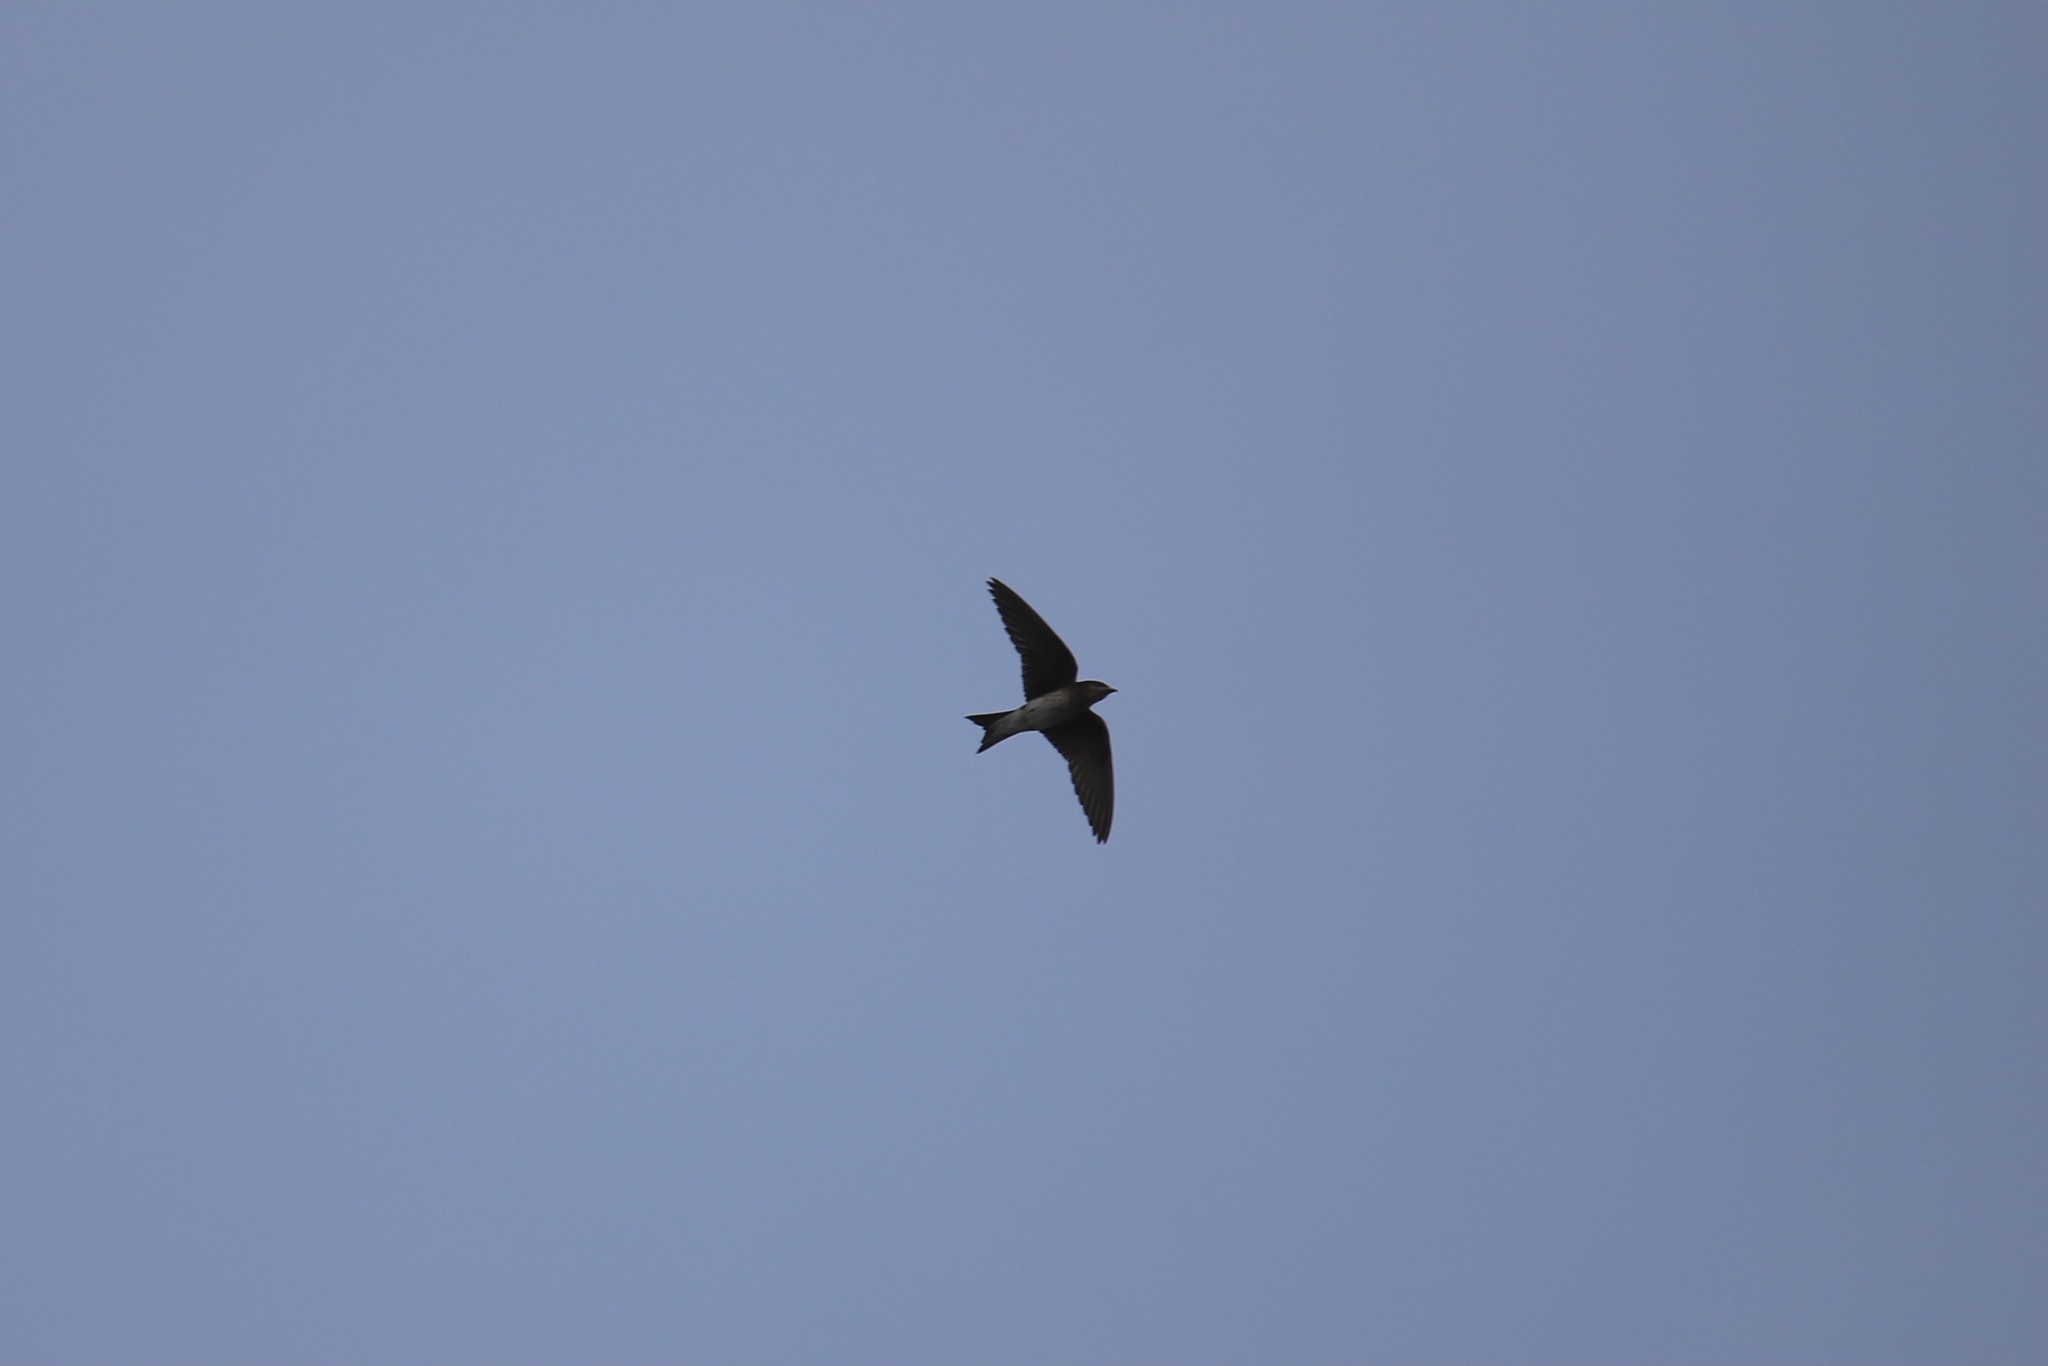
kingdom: Animalia
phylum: Chordata
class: Aves
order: Passeriformes
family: Hirundinidae
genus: Progne
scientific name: Progne chalybea
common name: Grey-breasted martin
